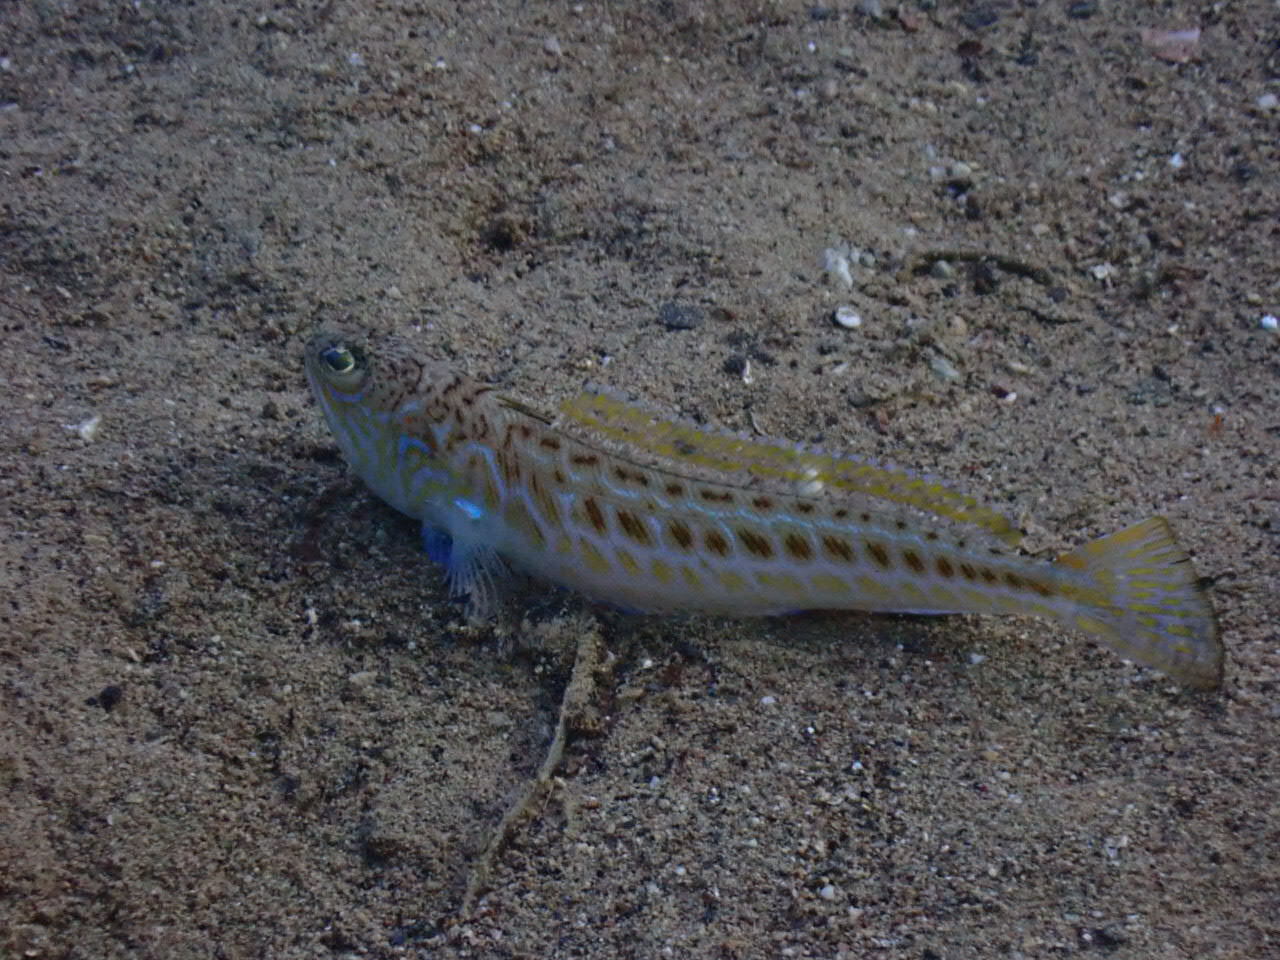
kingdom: Animalia
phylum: Chordata
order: Perciformes
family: Trachinidae
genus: Trachinus
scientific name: Trachinus draco
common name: Greater weever
